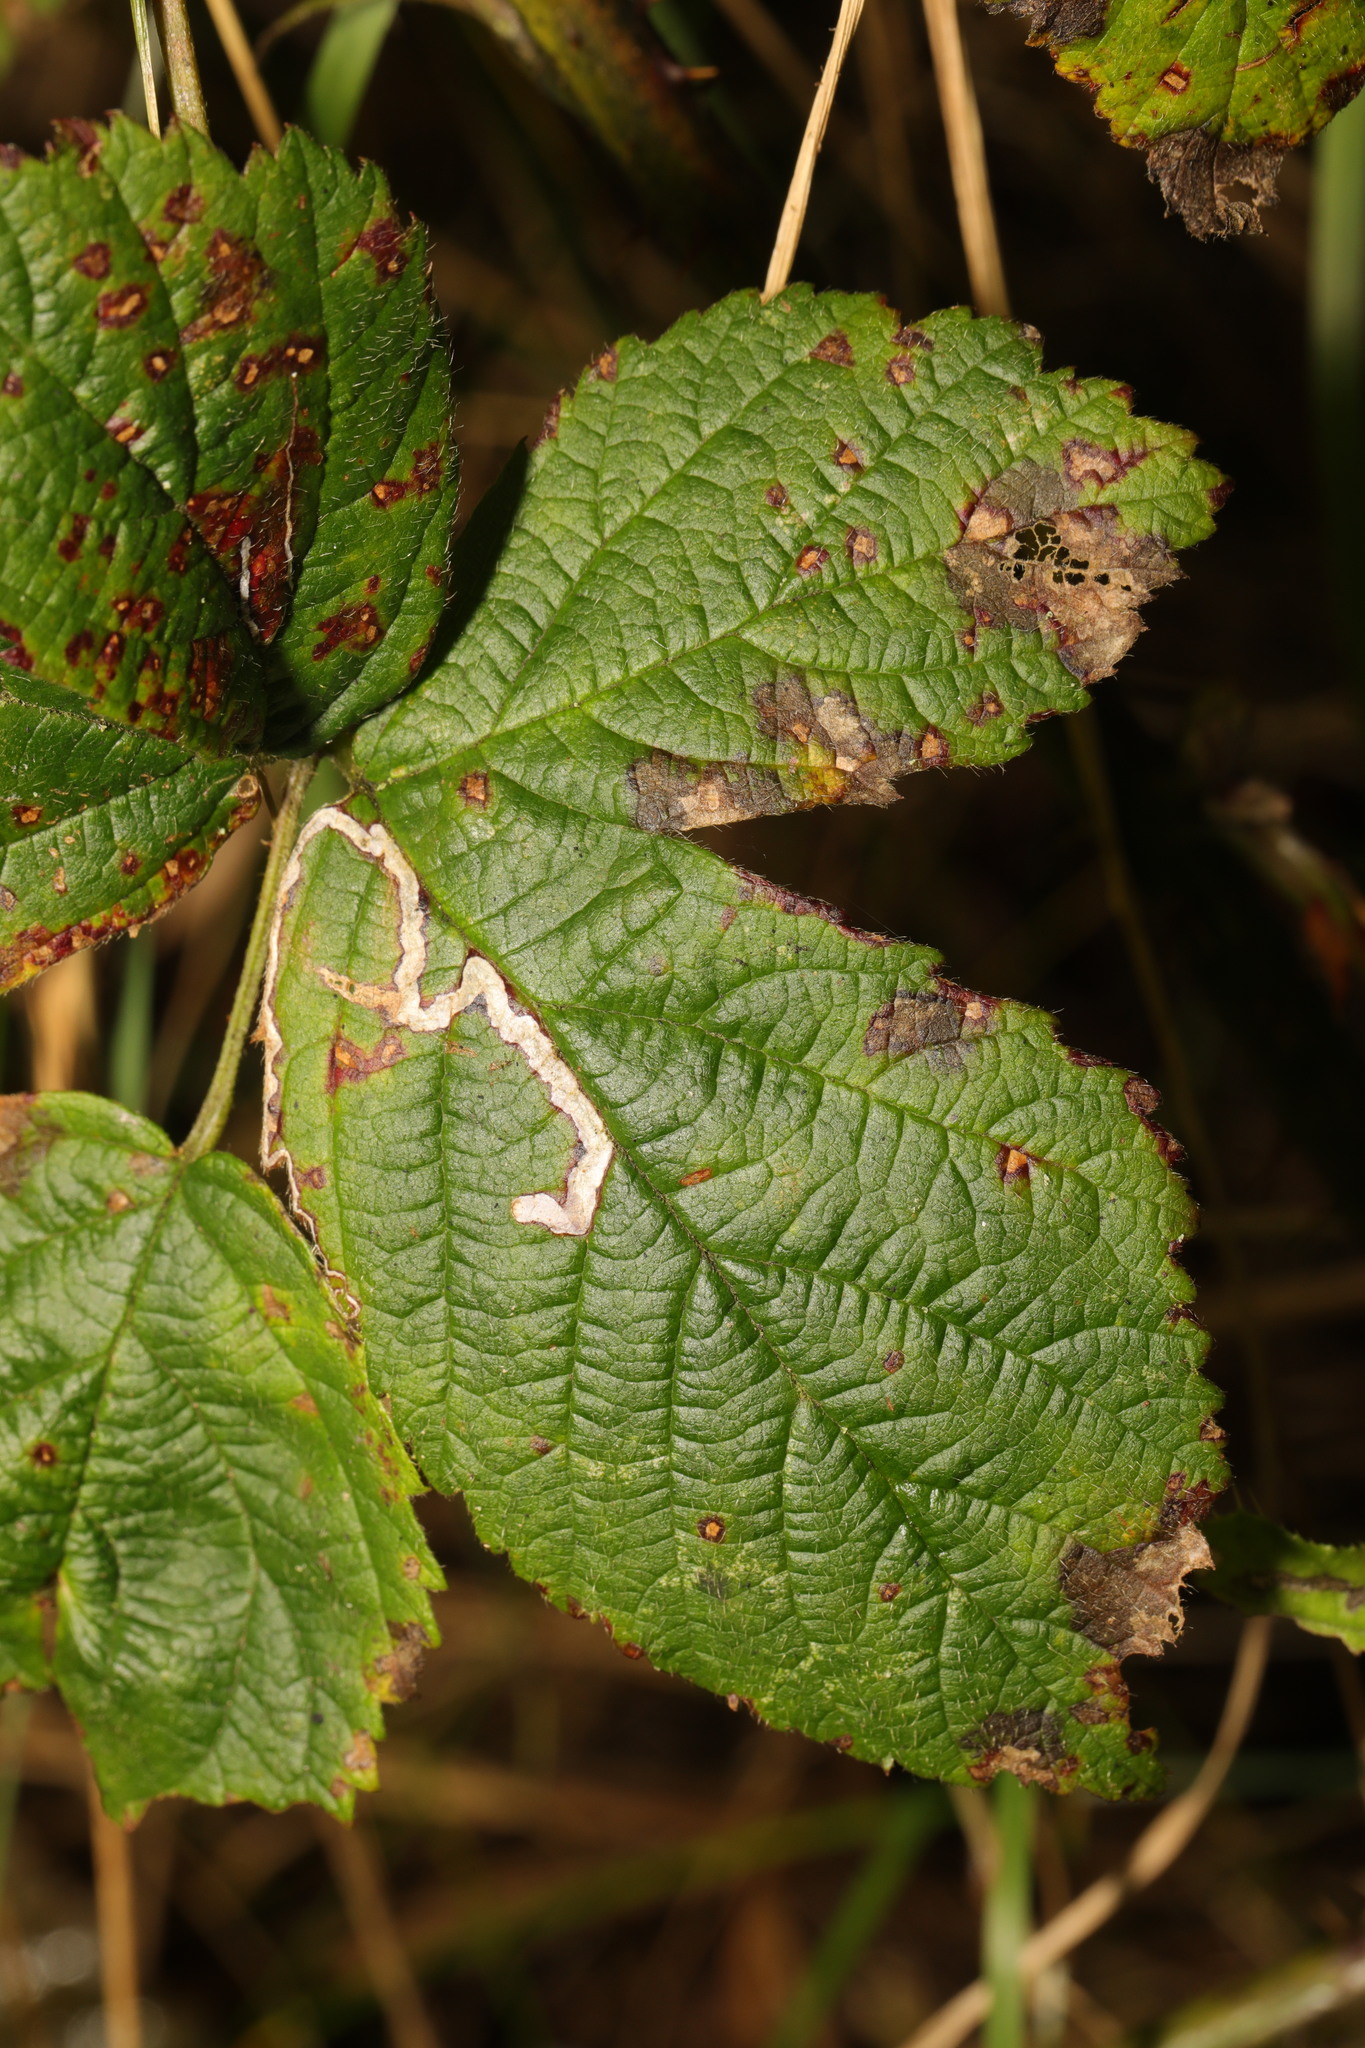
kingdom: Animalia
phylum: Arthropoda
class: Insecta
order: Lepidoptera
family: Nepticulidae
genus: Stigmella
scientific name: Stigmella aurella
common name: Golden pigmy
